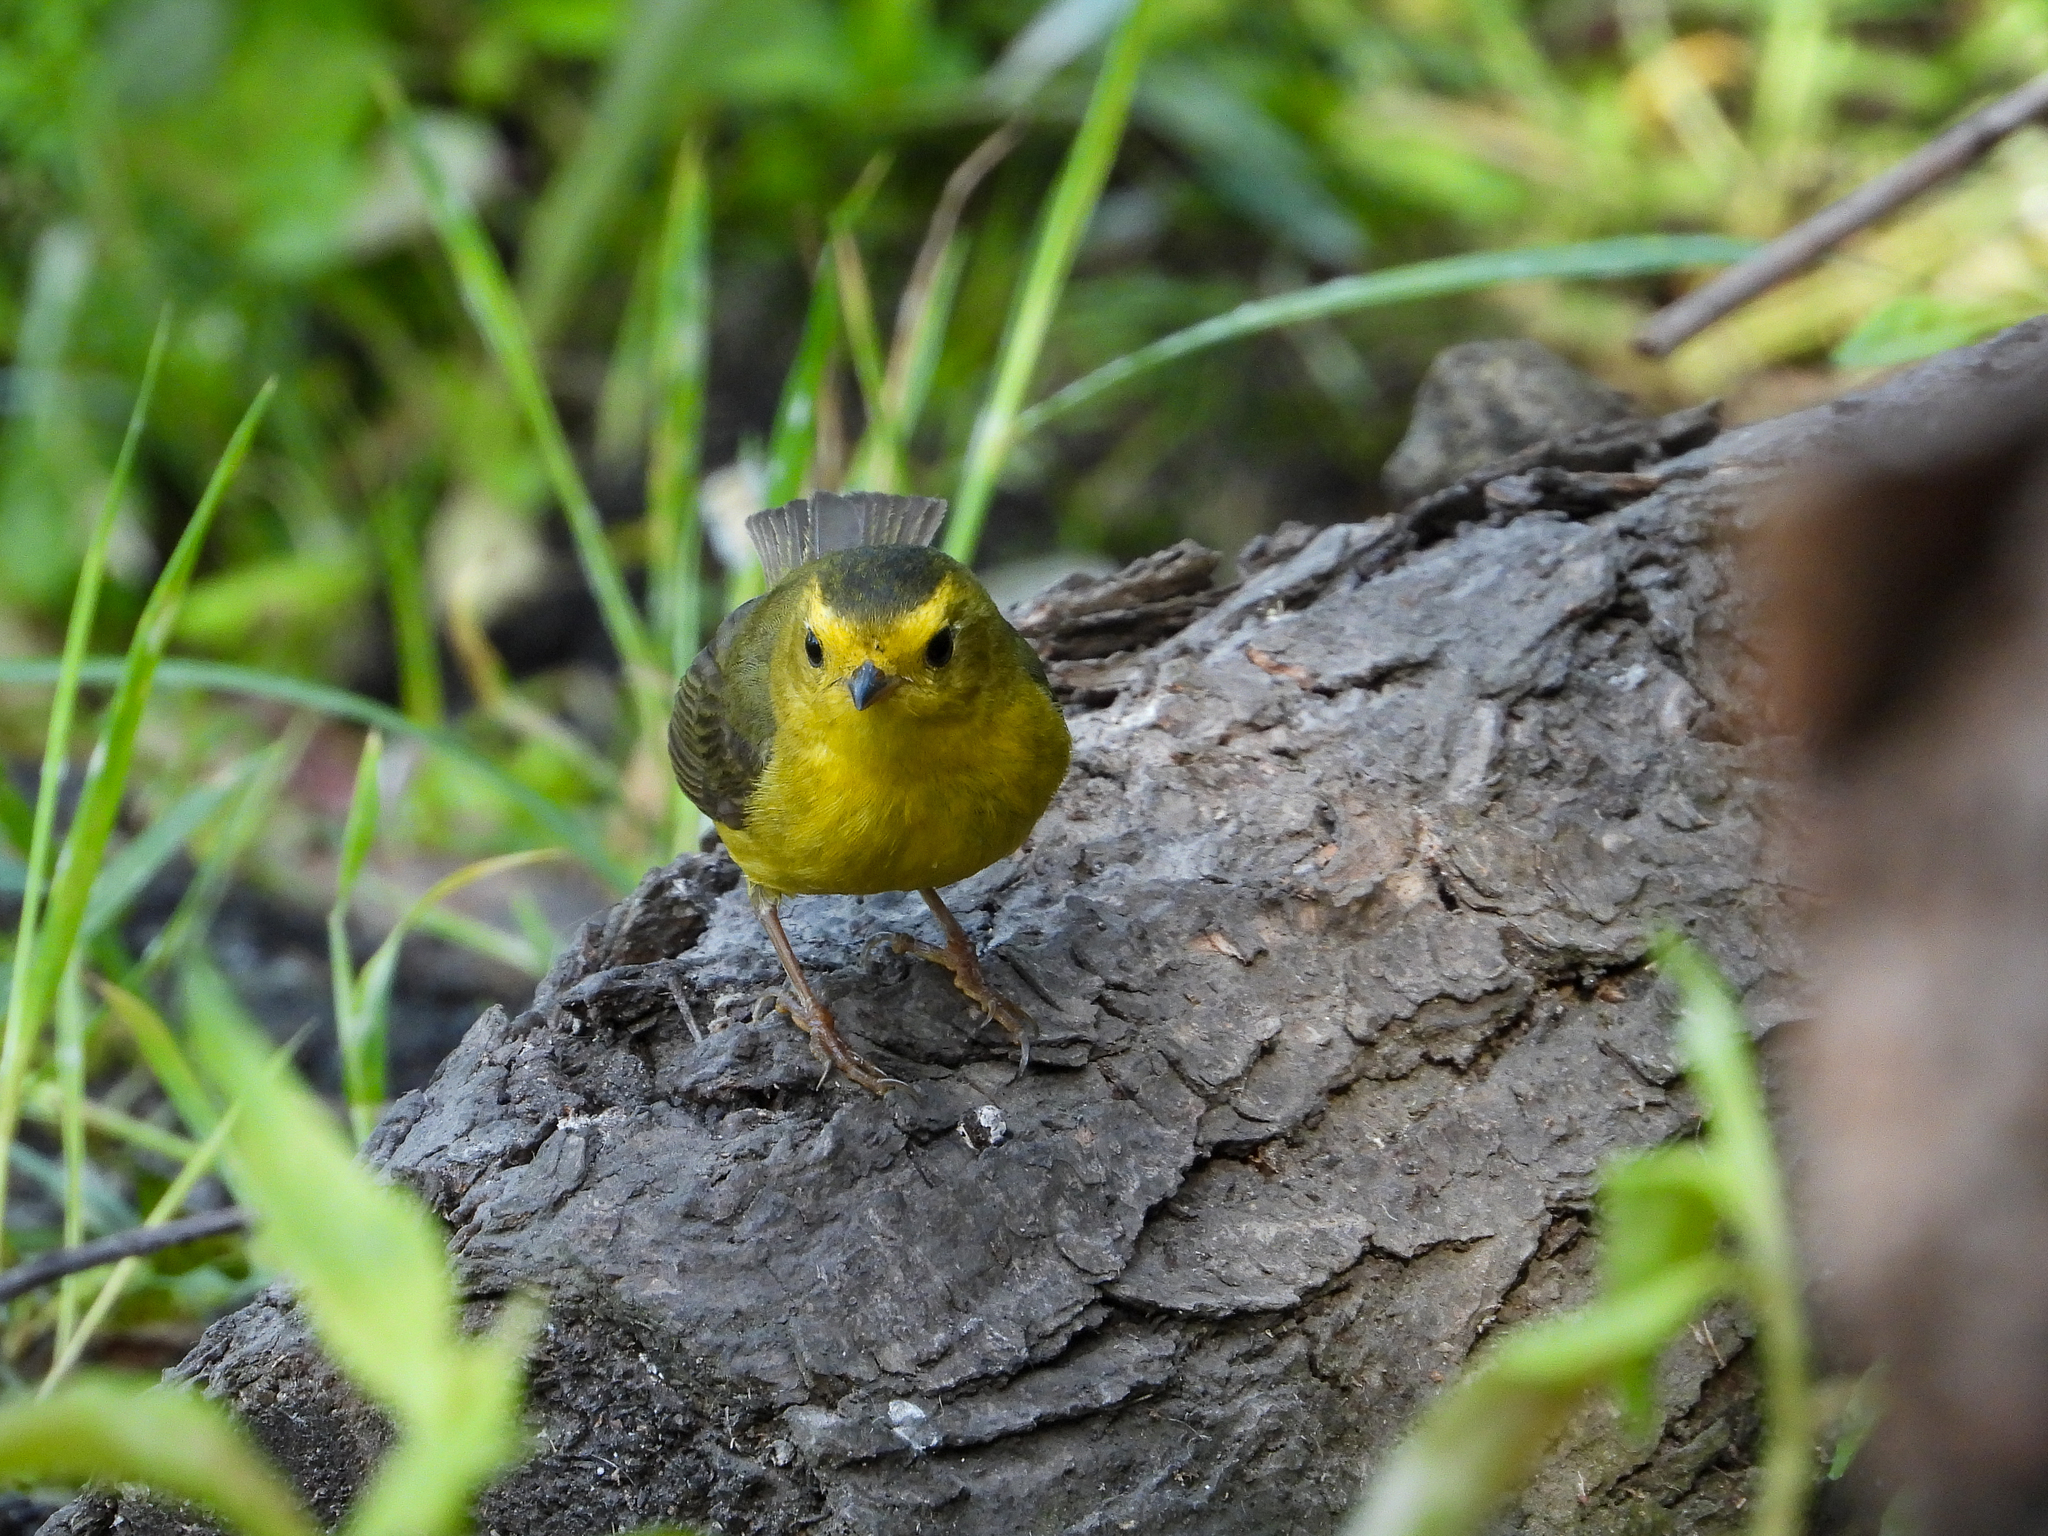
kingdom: Animalia
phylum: Chordata
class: Aves
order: Passeriformes
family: Parulidae
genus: Cardellina
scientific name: Cardellina pusilla
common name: Wilson's warbler
